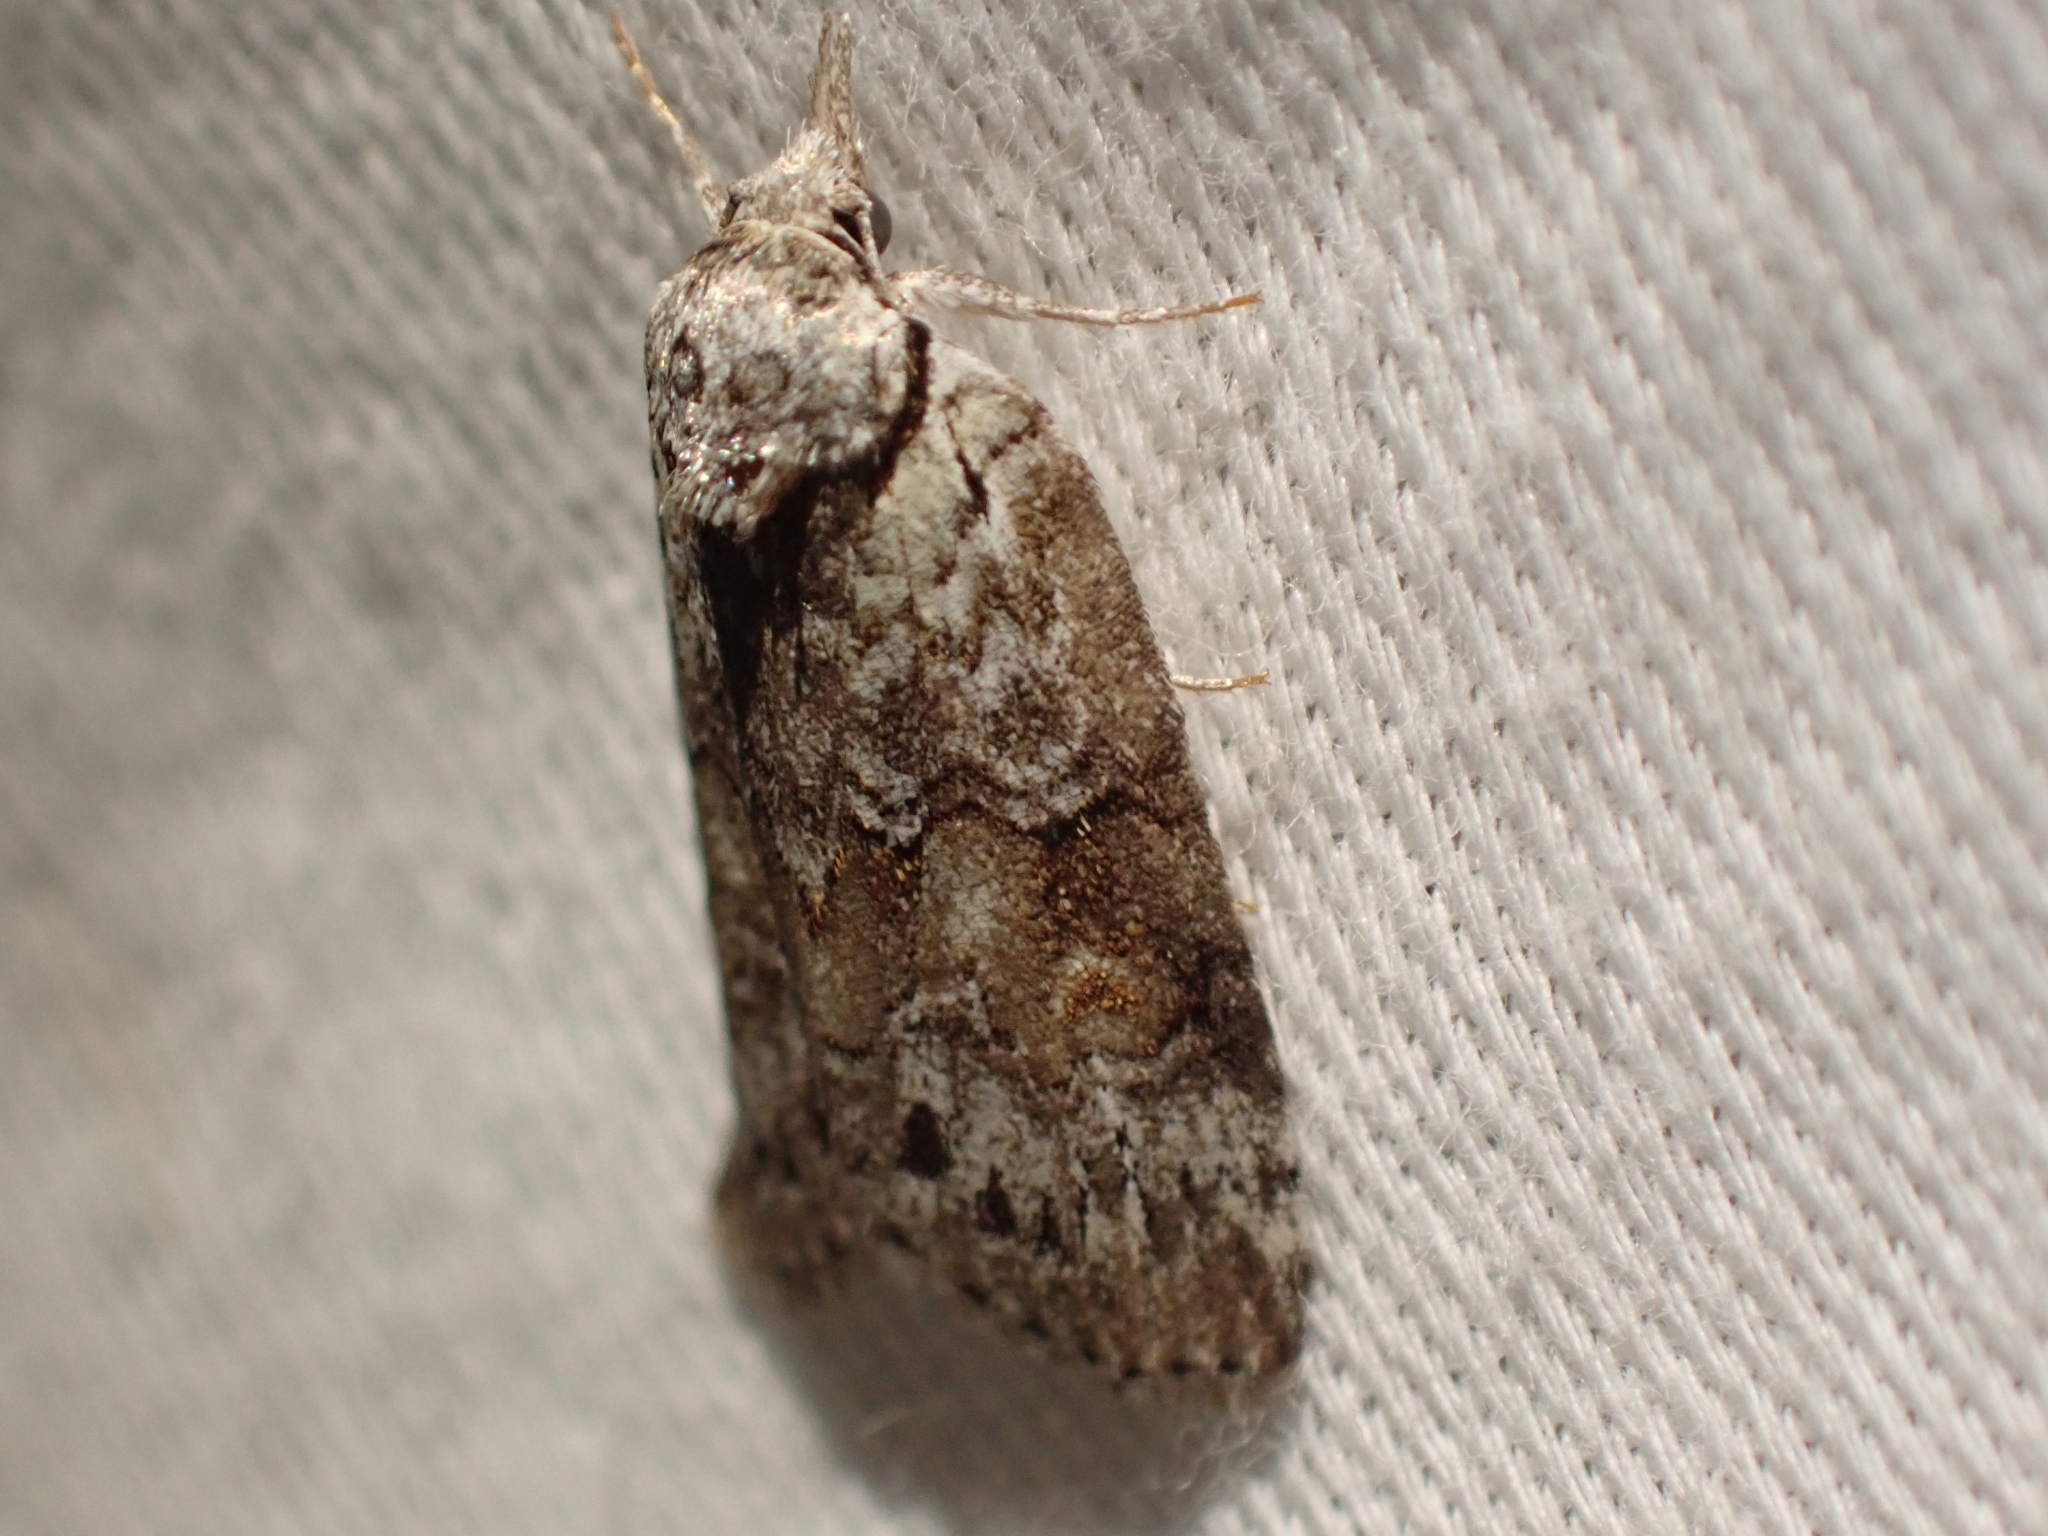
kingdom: Animalia
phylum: Arthropoda
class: Insecta
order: Lepidoptera
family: Nolidae
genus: Nycteola
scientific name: Nycteola cinereana
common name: Grey midget moth
